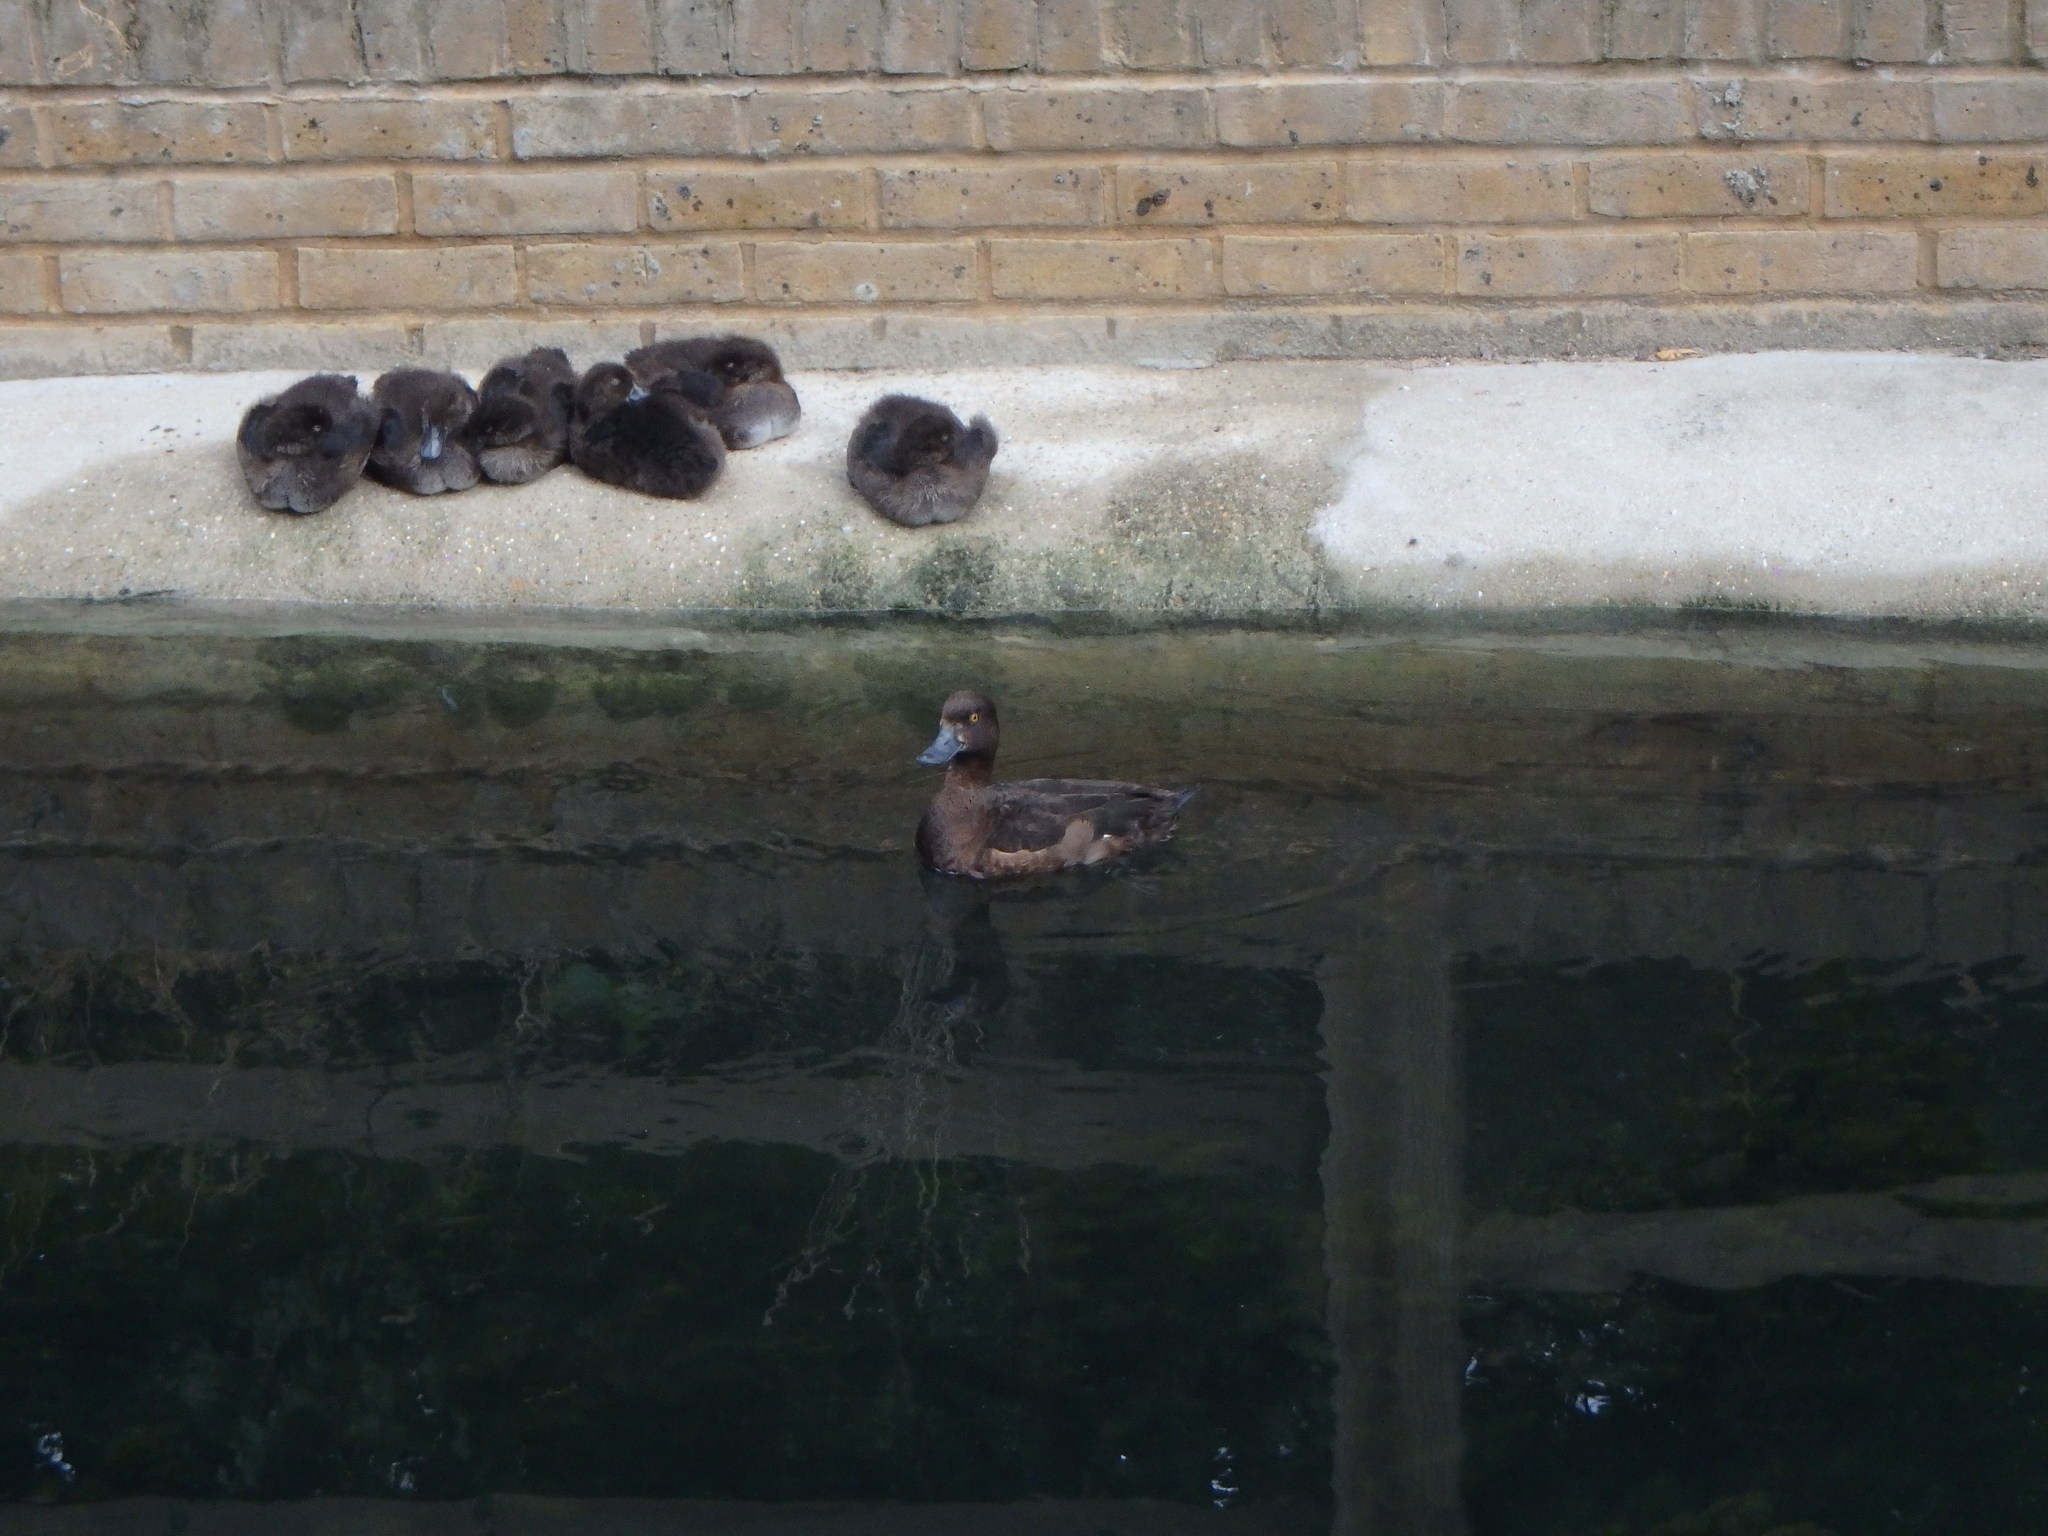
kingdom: Animalia
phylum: Chordata
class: Aves
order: Anseriformes
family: Anatidae
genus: Aythya
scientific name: Aythya fuligula
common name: Tufted duck
